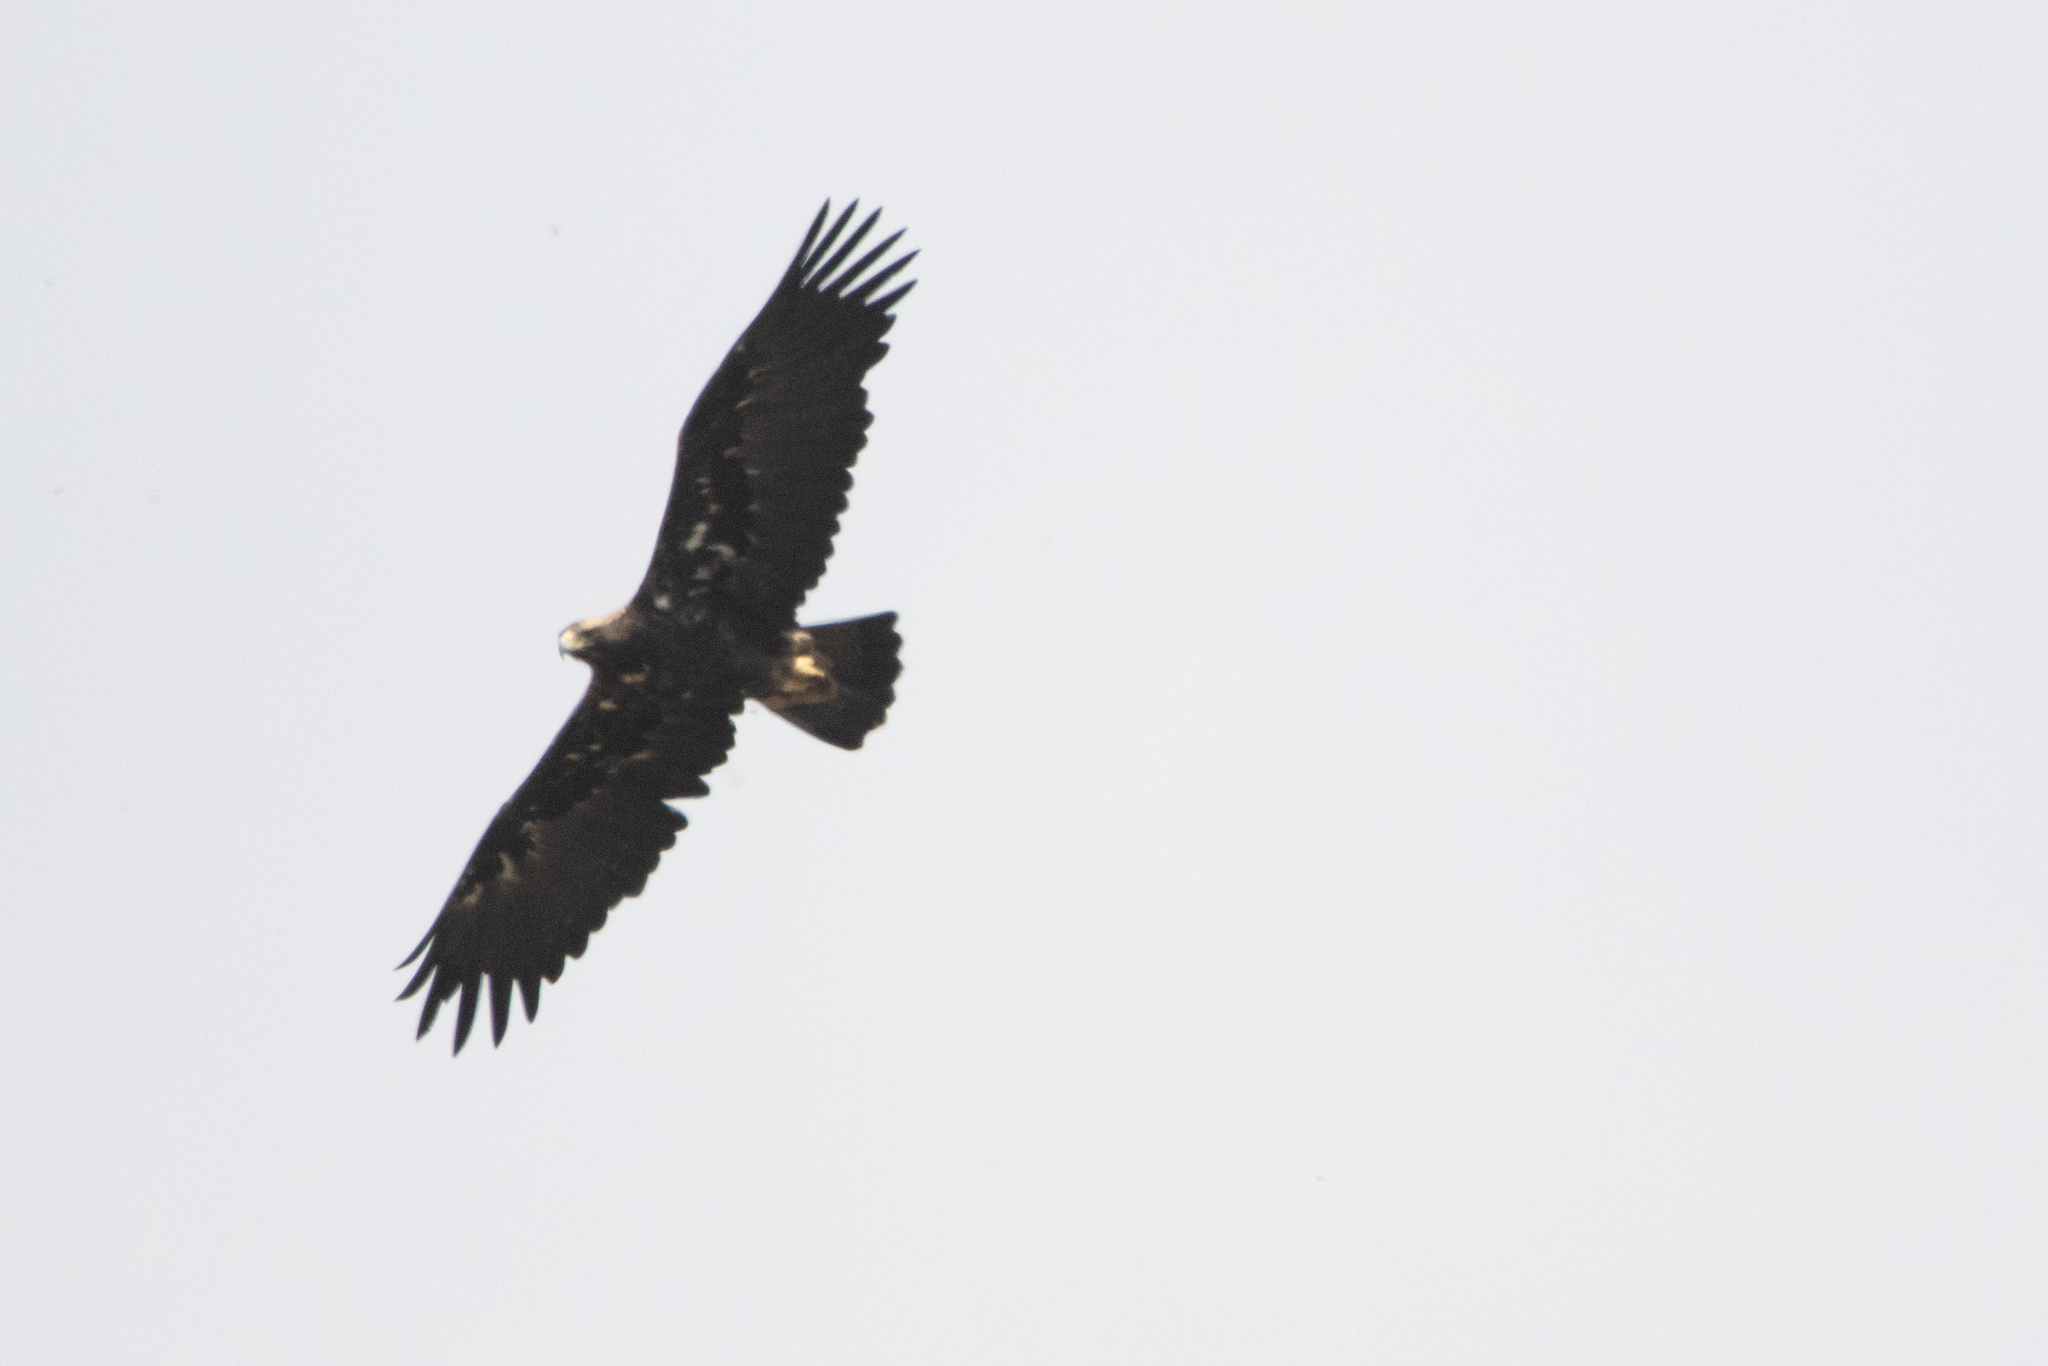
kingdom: Animalia
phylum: Chordata
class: Aves
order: Accipitriformes
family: Accipitridae
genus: Aquila
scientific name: Aquila heliaca
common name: Eastern imperial eagle
